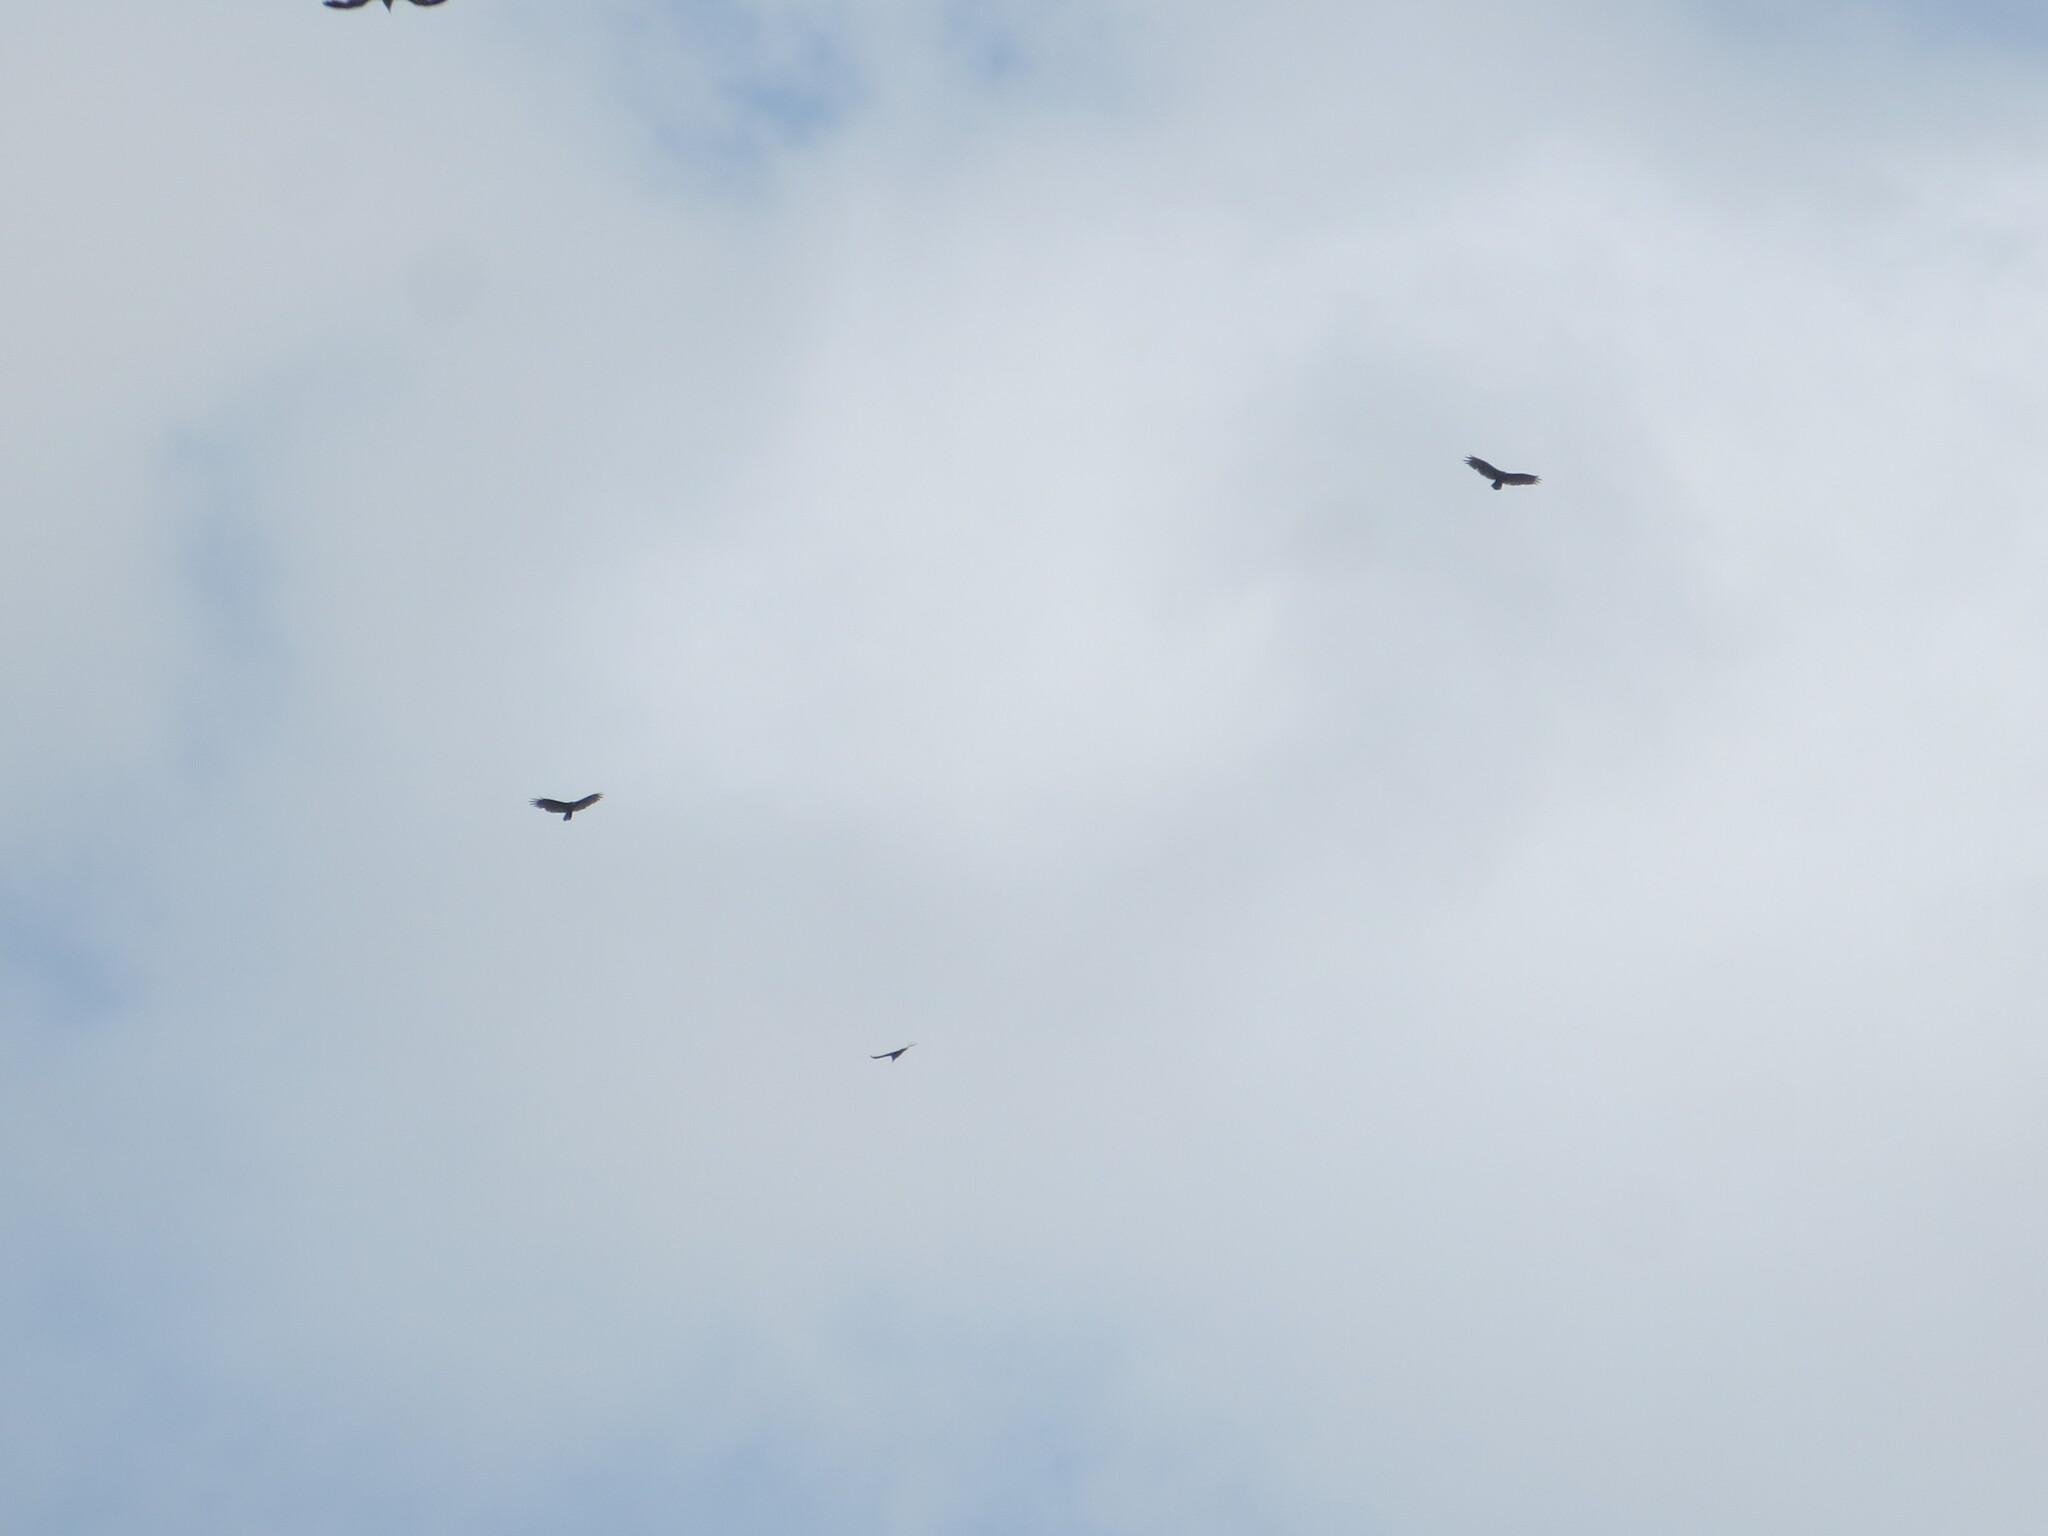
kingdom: Animalia
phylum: Chordata
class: Aves
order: Accipitriformes
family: Cathartidae
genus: Cathartes
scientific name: Cathartes aura
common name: Turkey vulture
